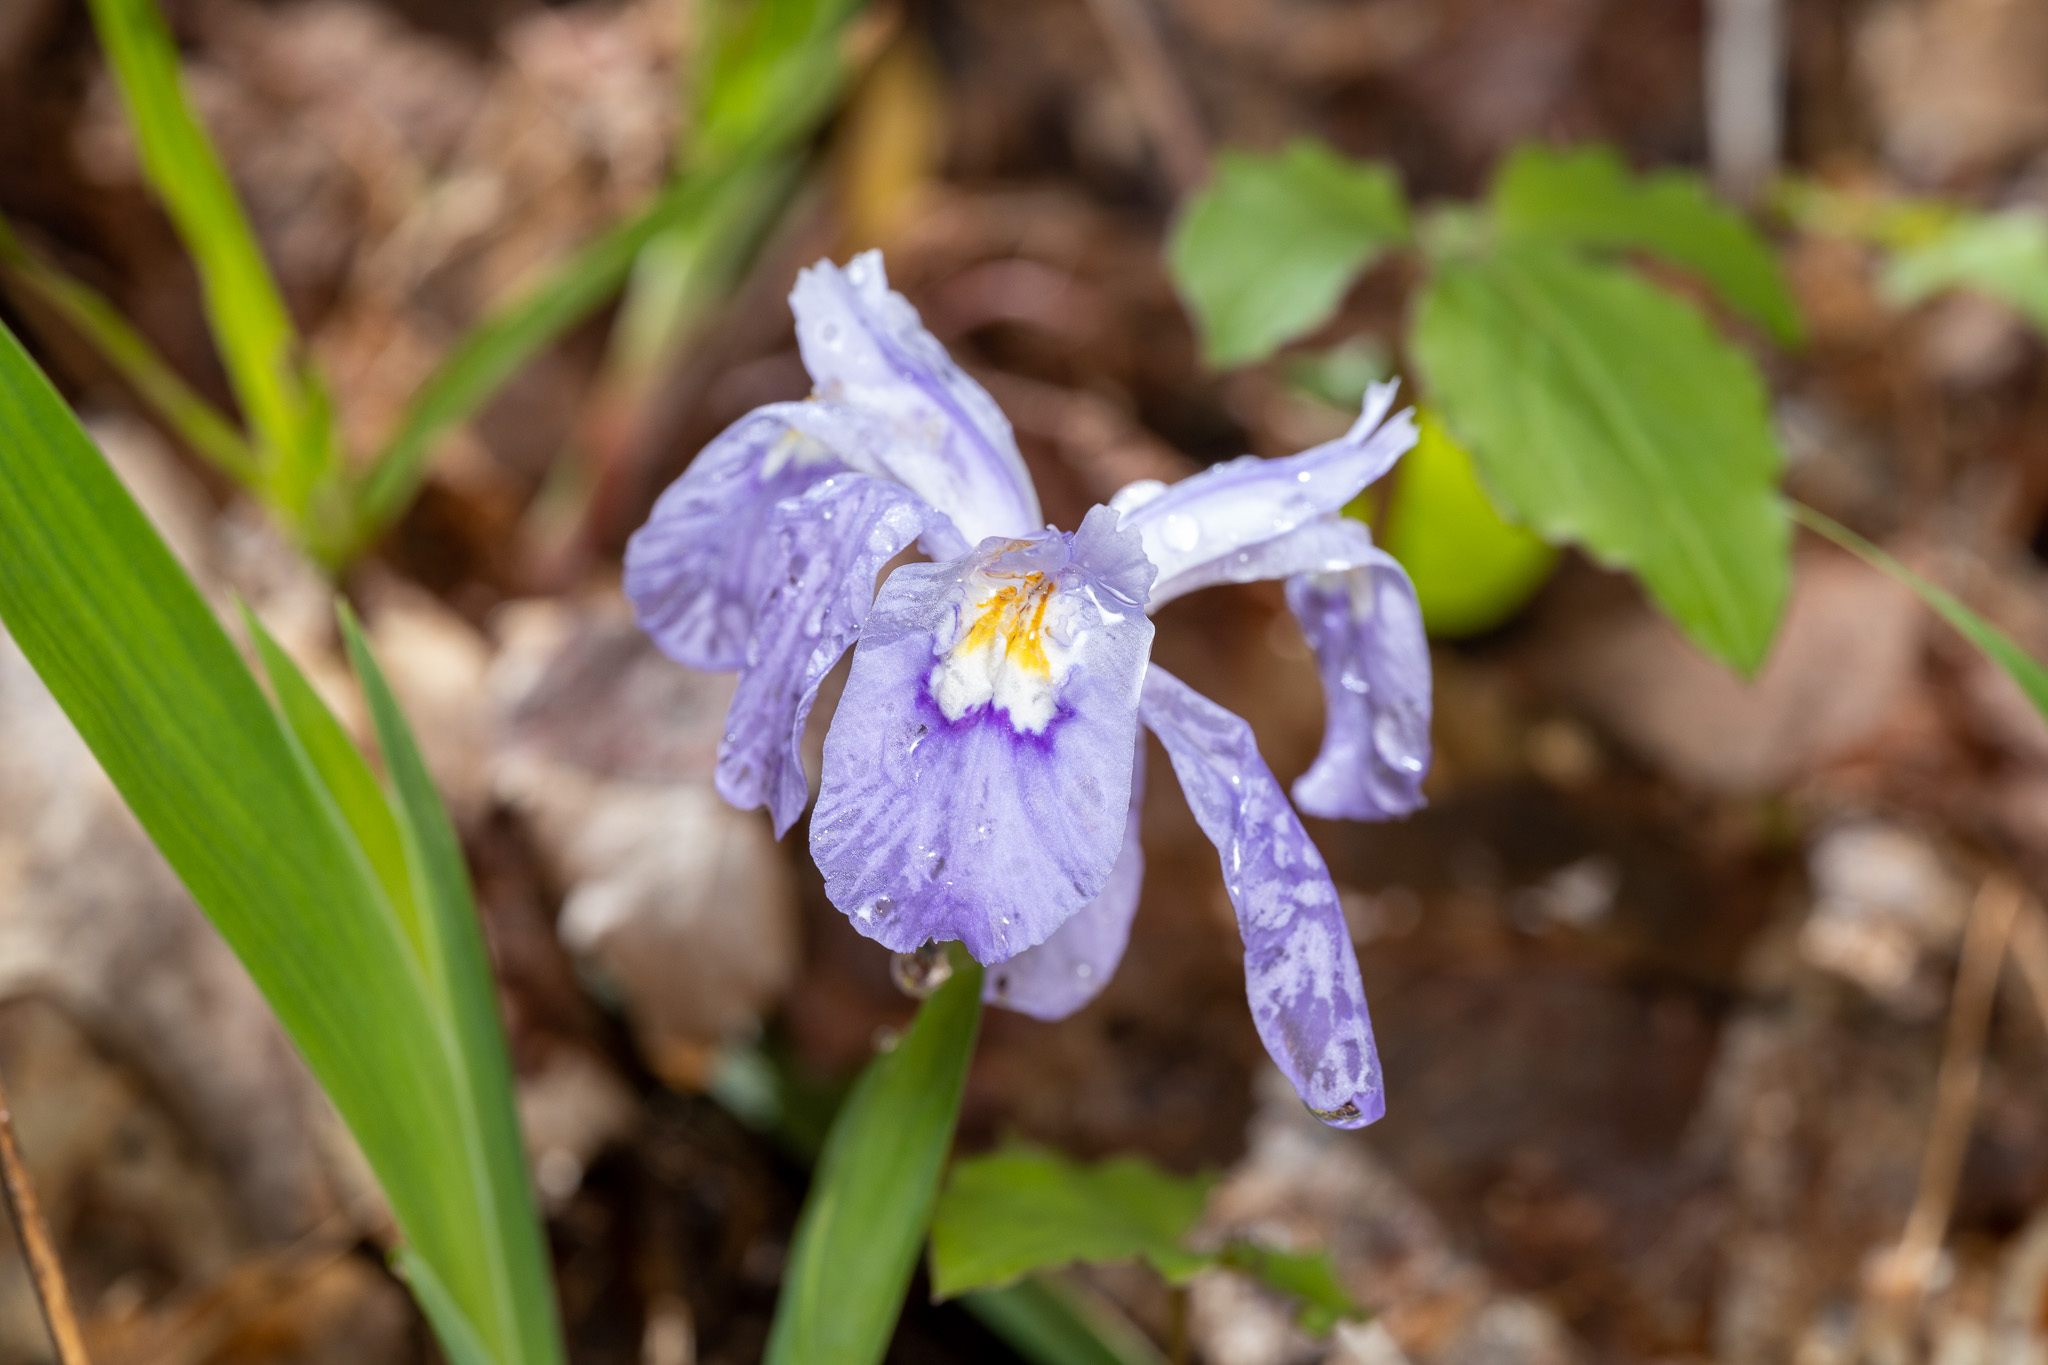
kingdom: Plantae
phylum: Tracheophyta
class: Liliopsida
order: Asparagales
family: Iridaceae
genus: Iris
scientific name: Iris cristata
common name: Crested iris
